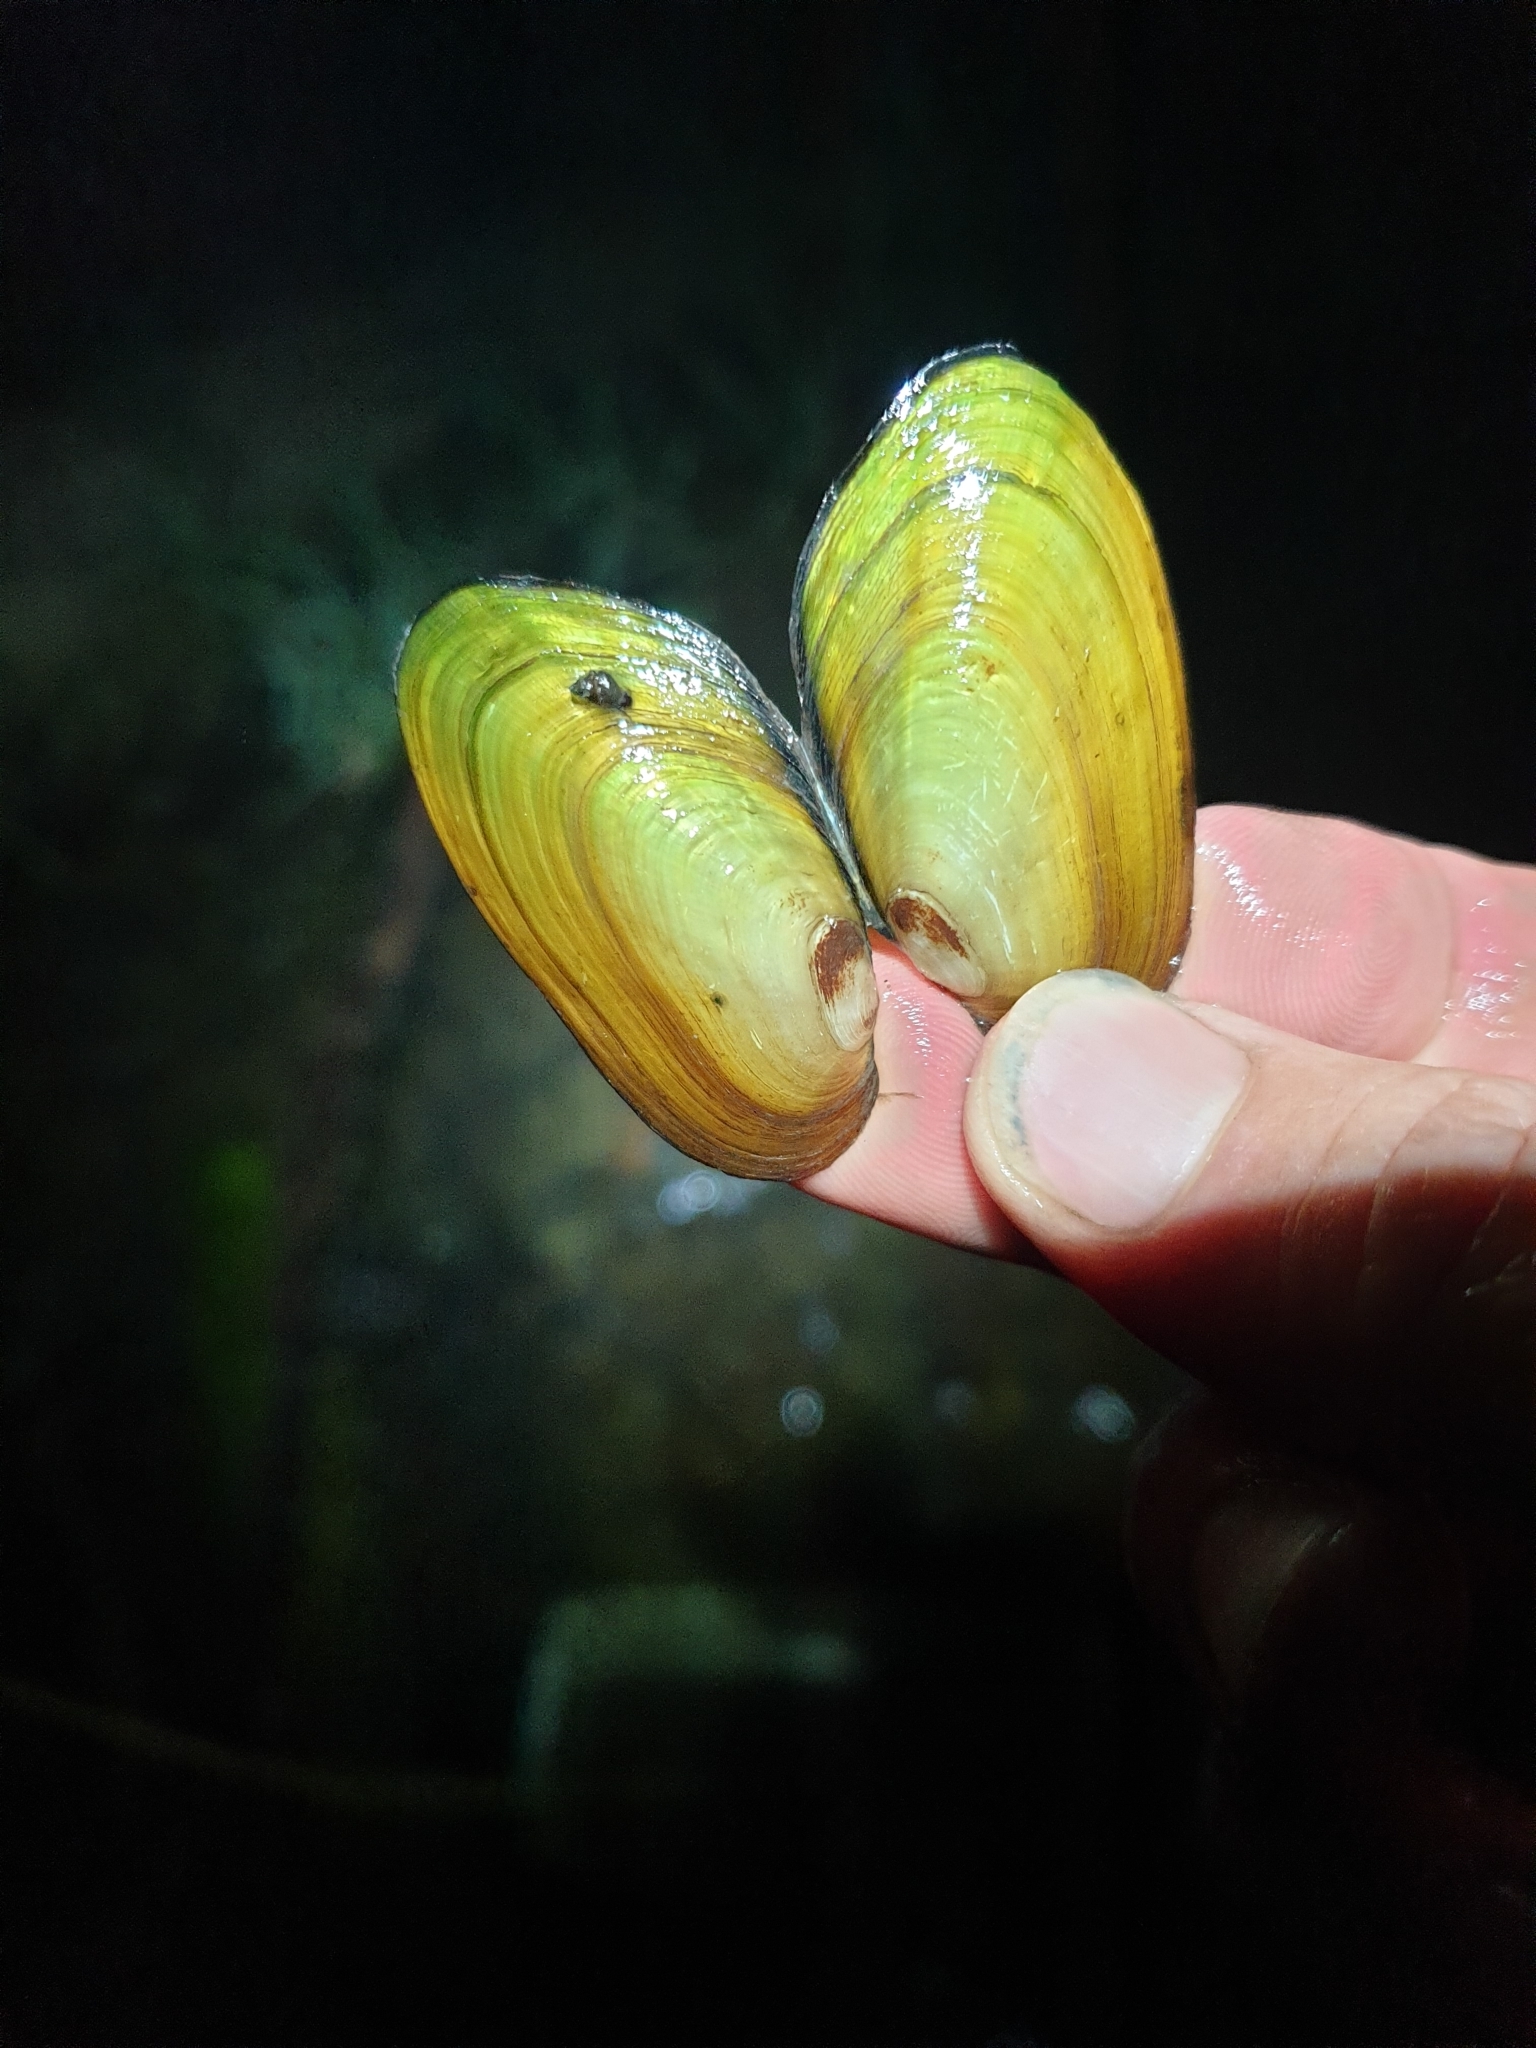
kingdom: Animalia
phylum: Mollusca
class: Bivalvia
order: Unionida
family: Hyriidae
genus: Echyridella
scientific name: Echyridella menziesii
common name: New zealand freshwater mussel
